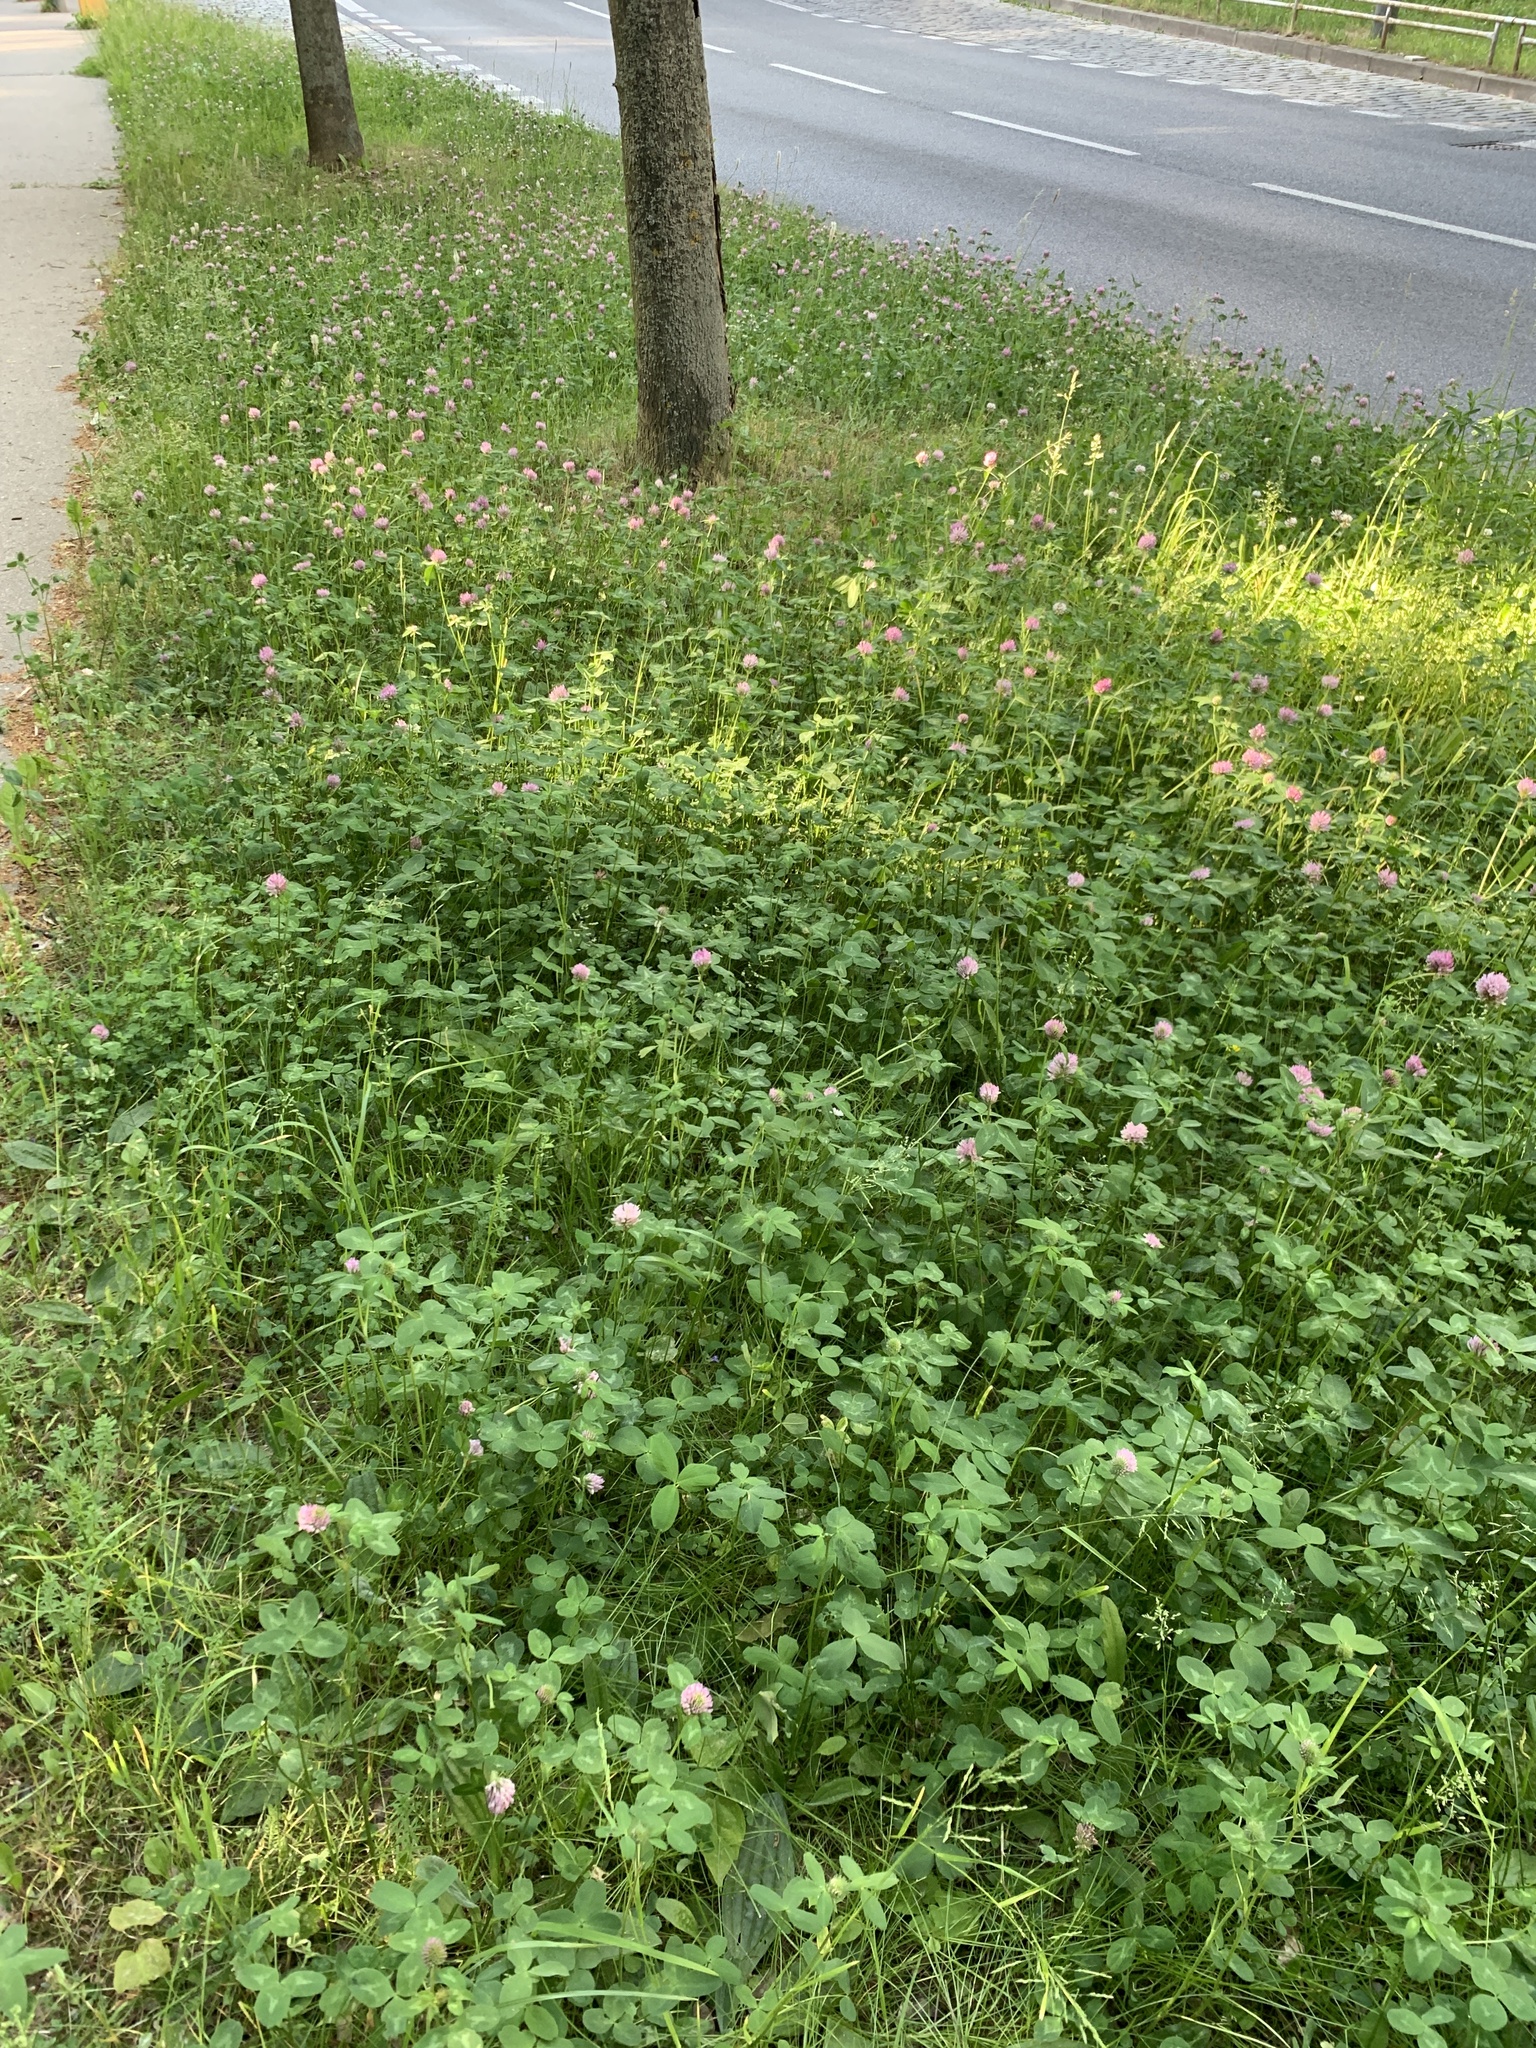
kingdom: Plantae
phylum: Tracheophyta
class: Magnoliopsida
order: Fabales
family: Fabaceae
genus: Trifolium
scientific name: Trifolium pratense
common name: Red clover
